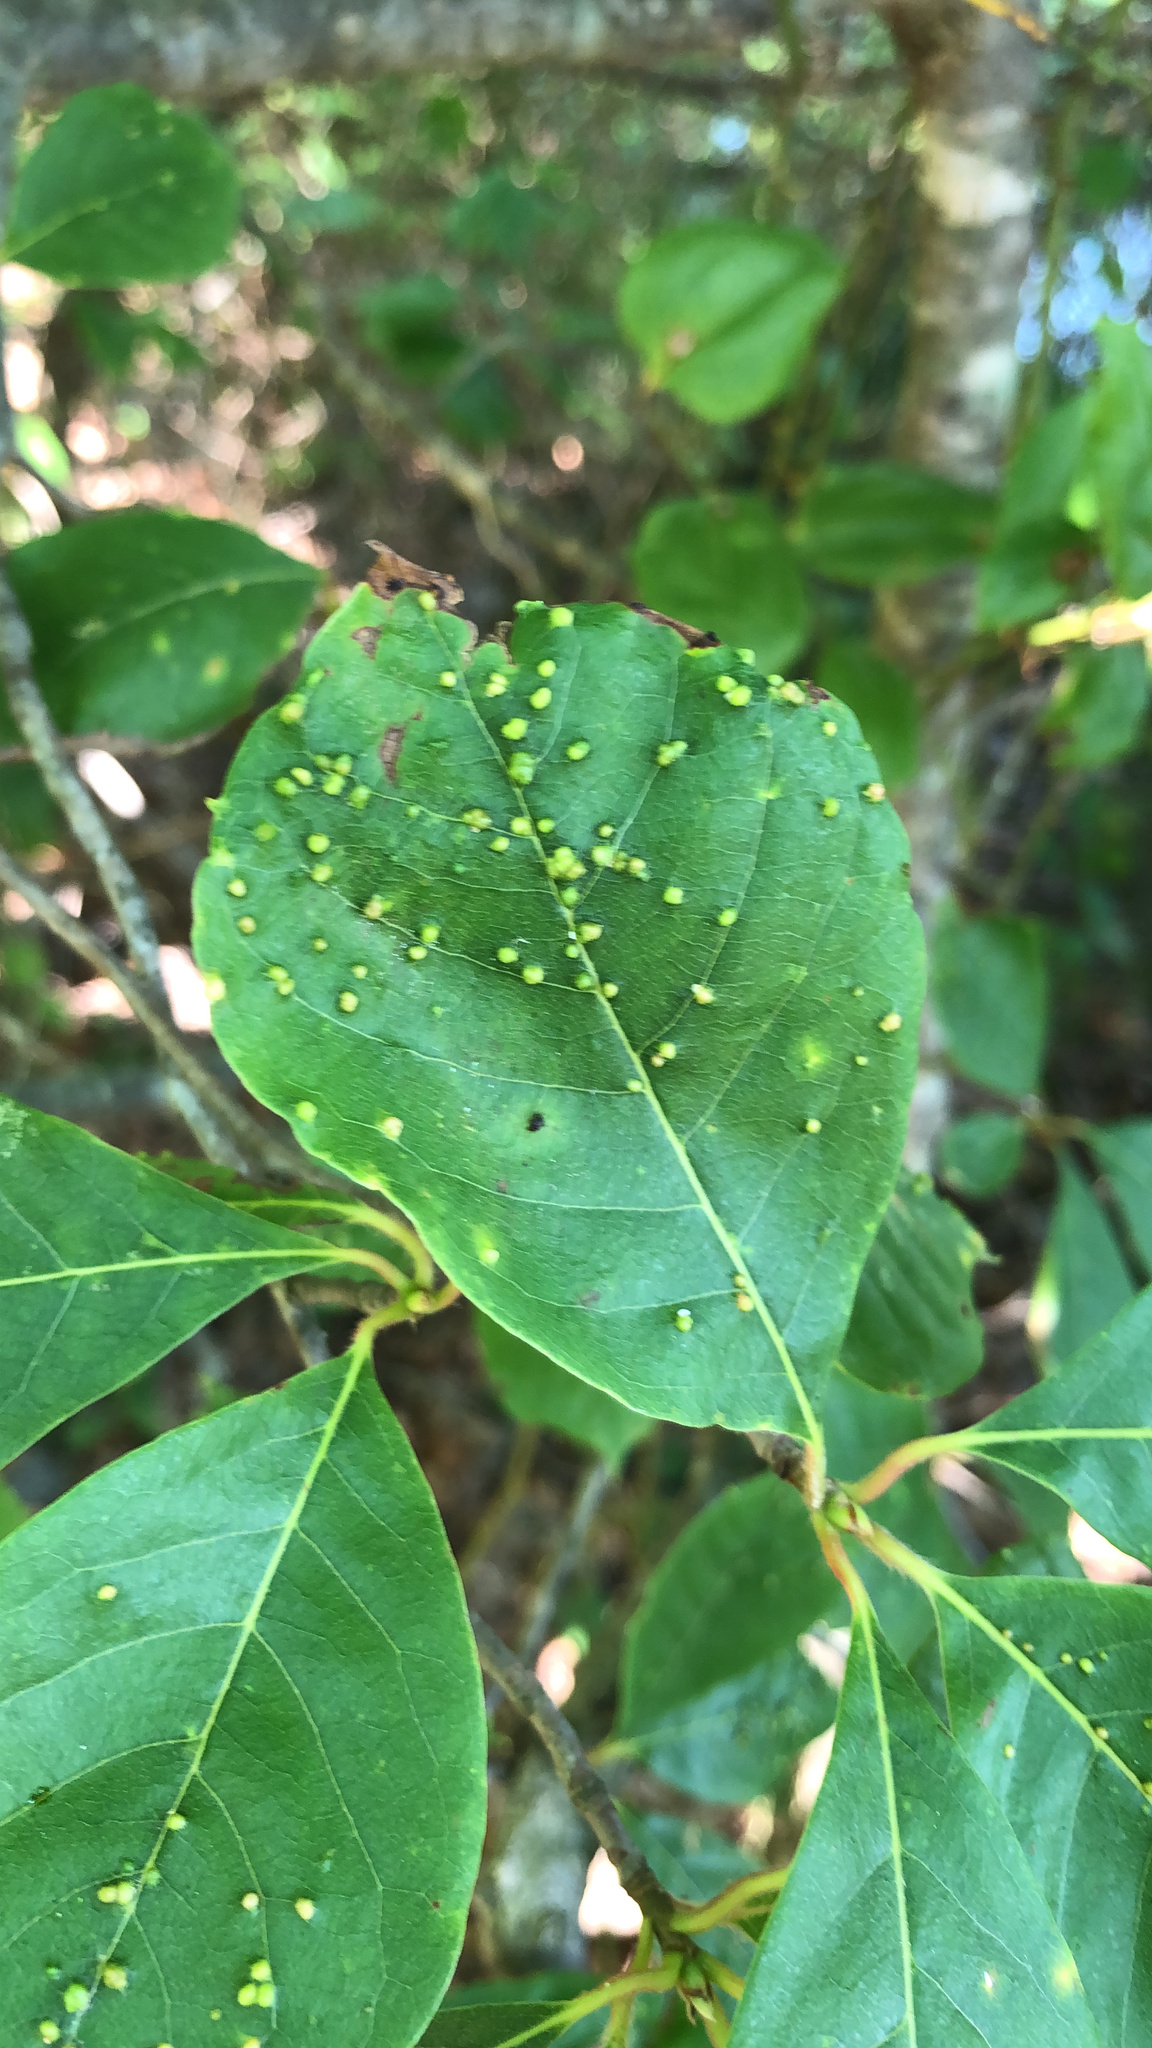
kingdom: Animalia
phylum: Arthropoda
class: Arachnida
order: Trombidiformes
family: Eriophyidae
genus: Aceria
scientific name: Aceria
